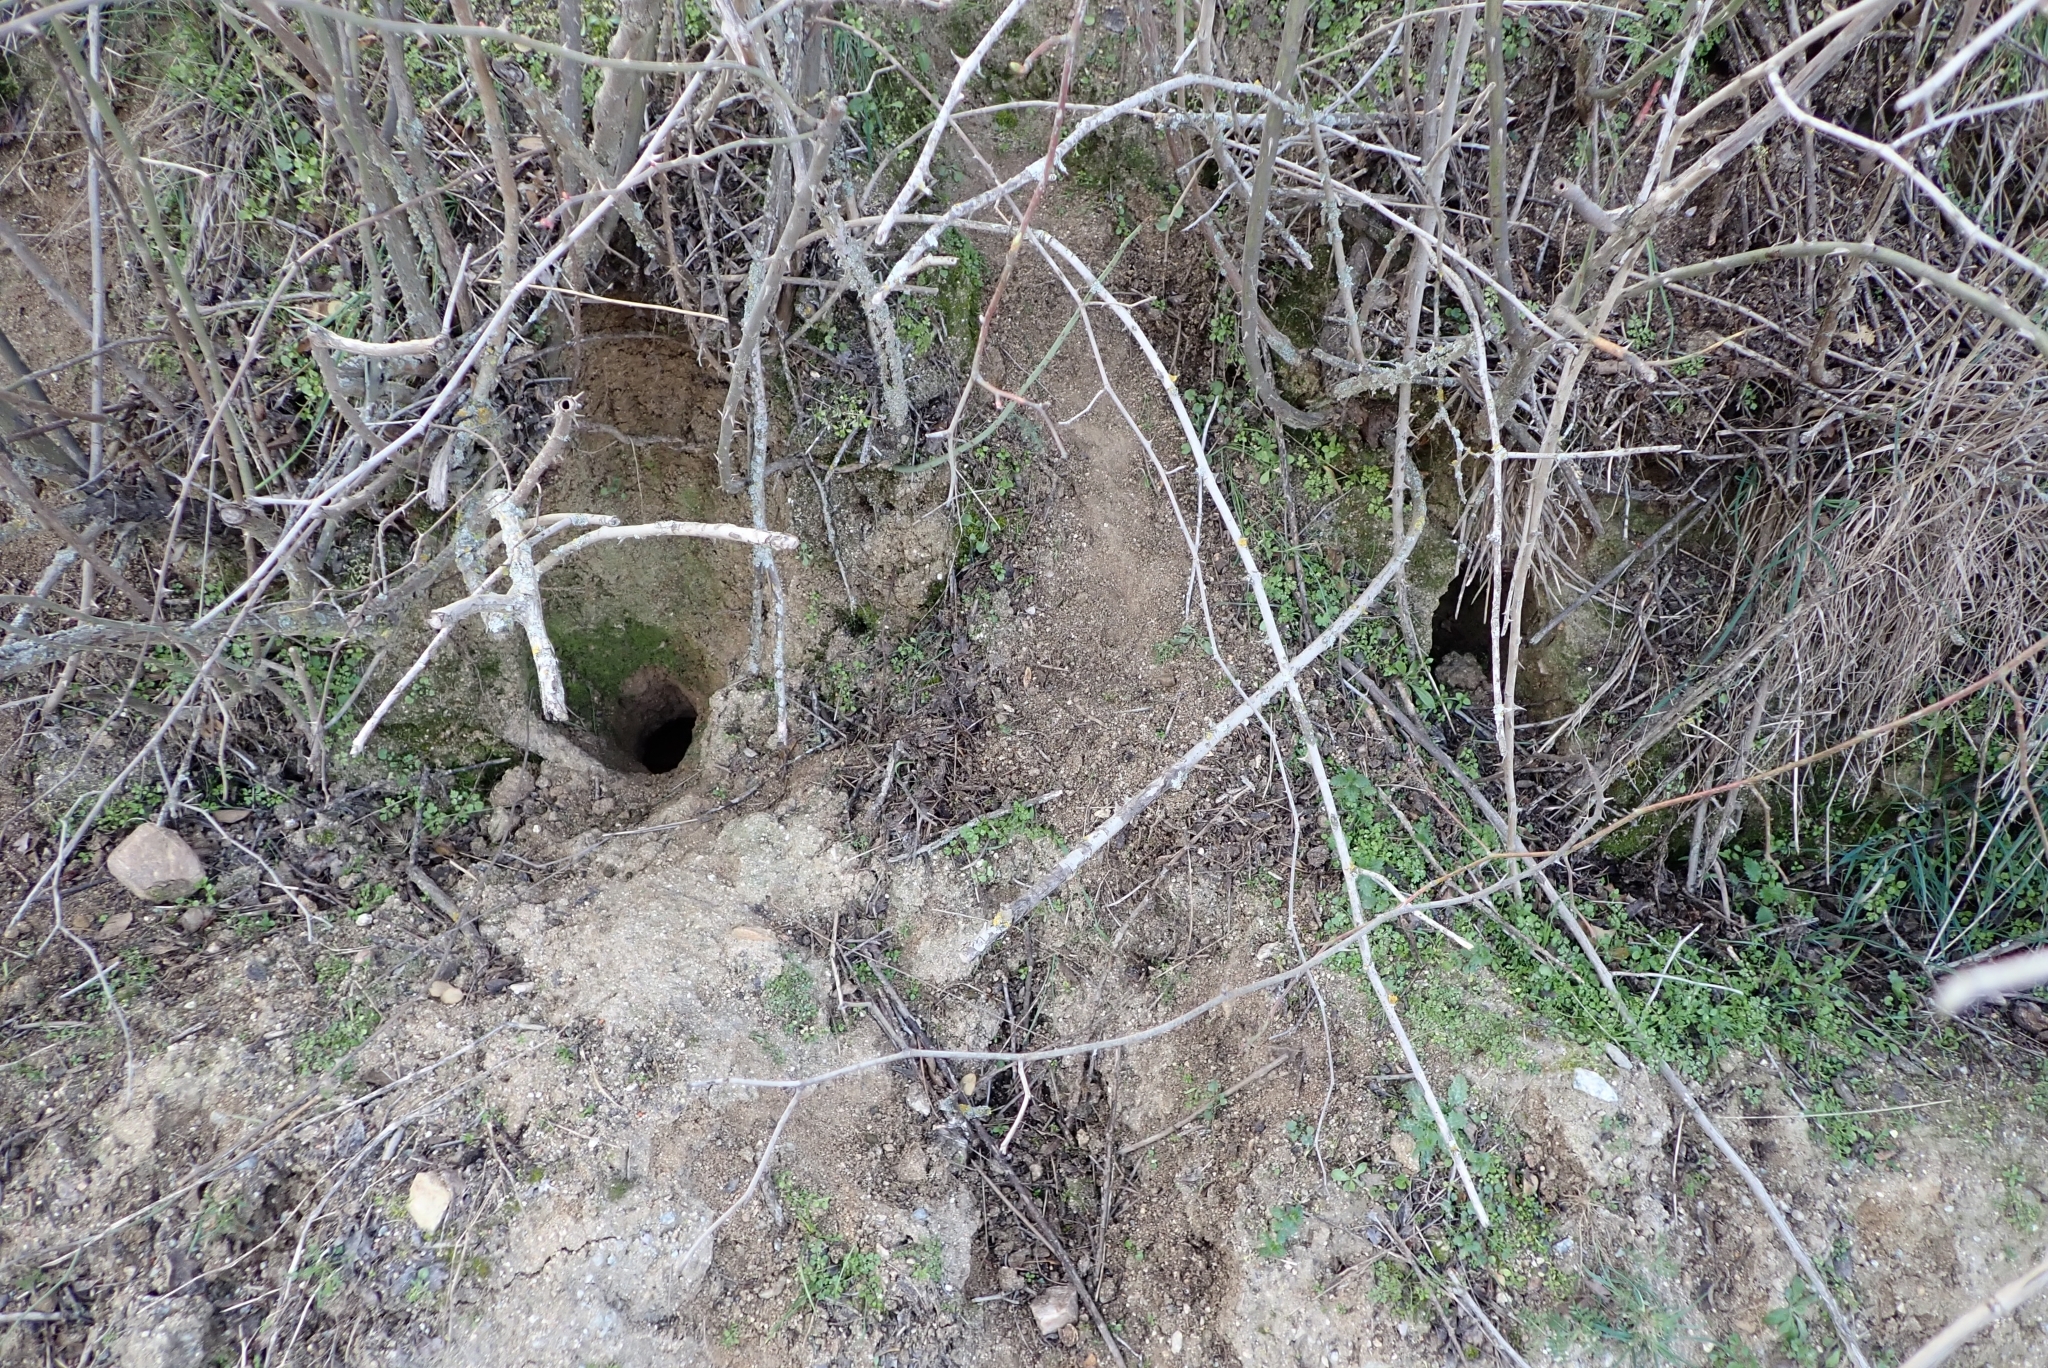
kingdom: Animalia
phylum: Chordata
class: Mammalia
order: Lagomorpha
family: Leporidae
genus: Oryctolagus
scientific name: Oryctolagus cuniculus
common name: European rabbit
